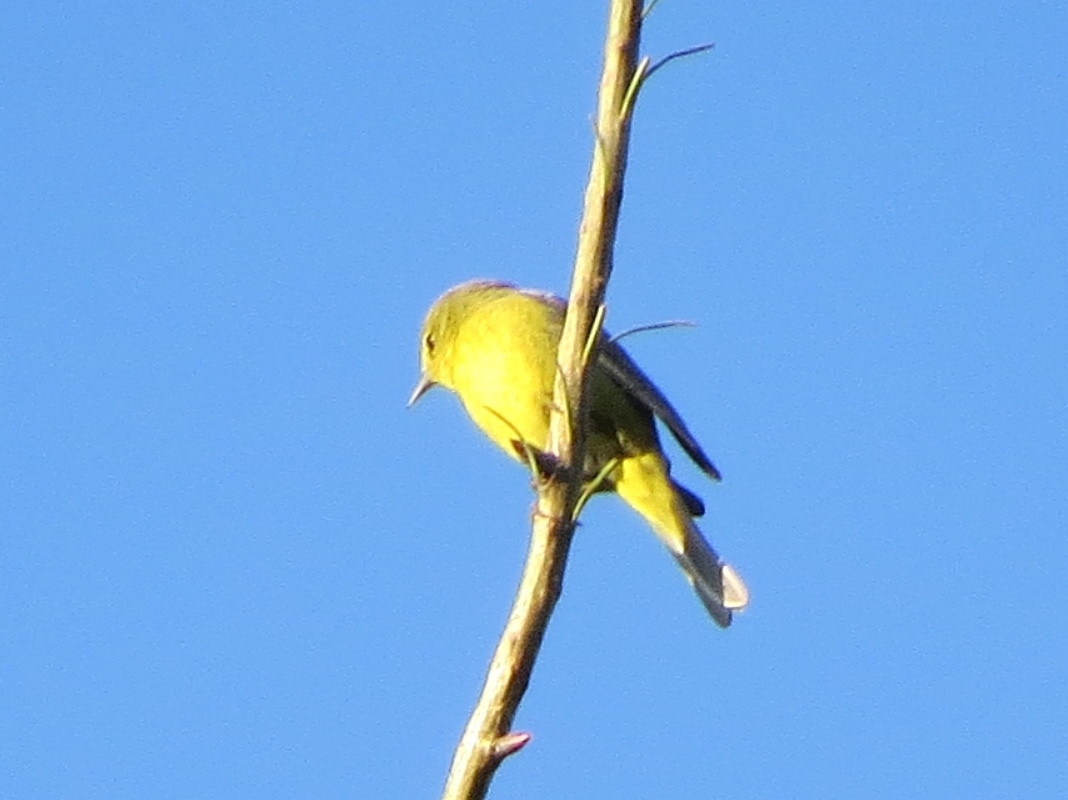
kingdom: Animalia
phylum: Chordata
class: Aves
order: Passeriformes
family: Parulidae
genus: Leiothlypis
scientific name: Leiothlypis celata
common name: Orange-crowned warbler
